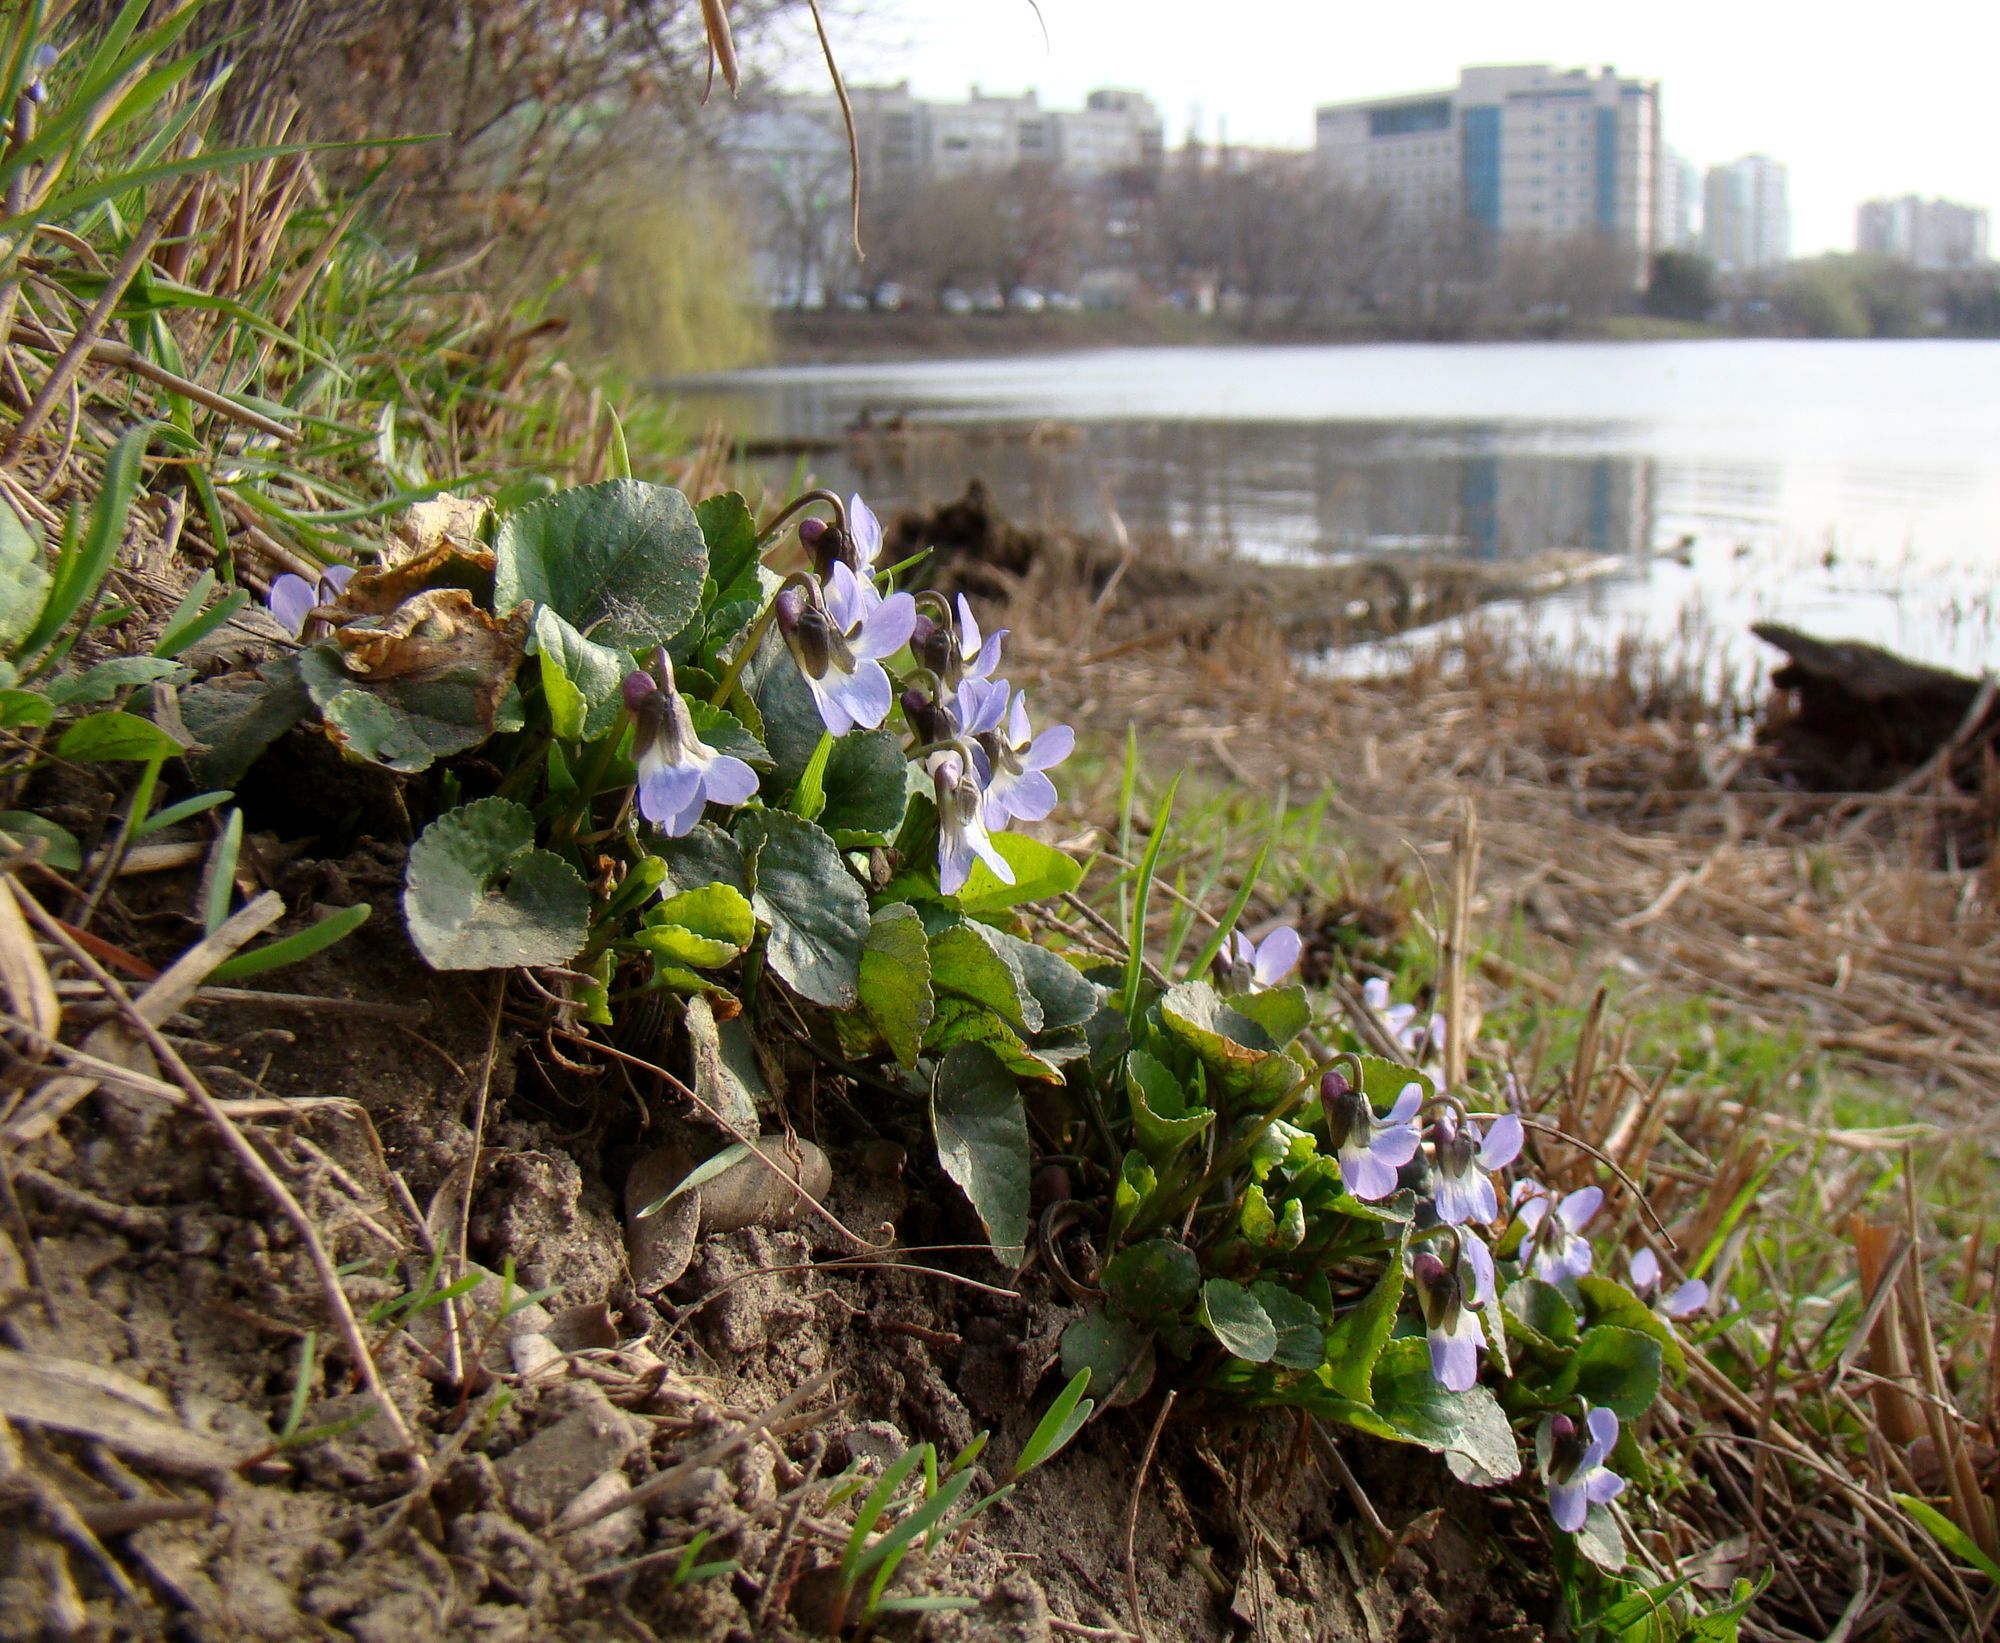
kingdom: Plantae
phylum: Tracheophyta
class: Magnoliopsida
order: Malpighiales
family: Violaceae
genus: Viola
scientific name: Viola suavis
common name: Russian violet
